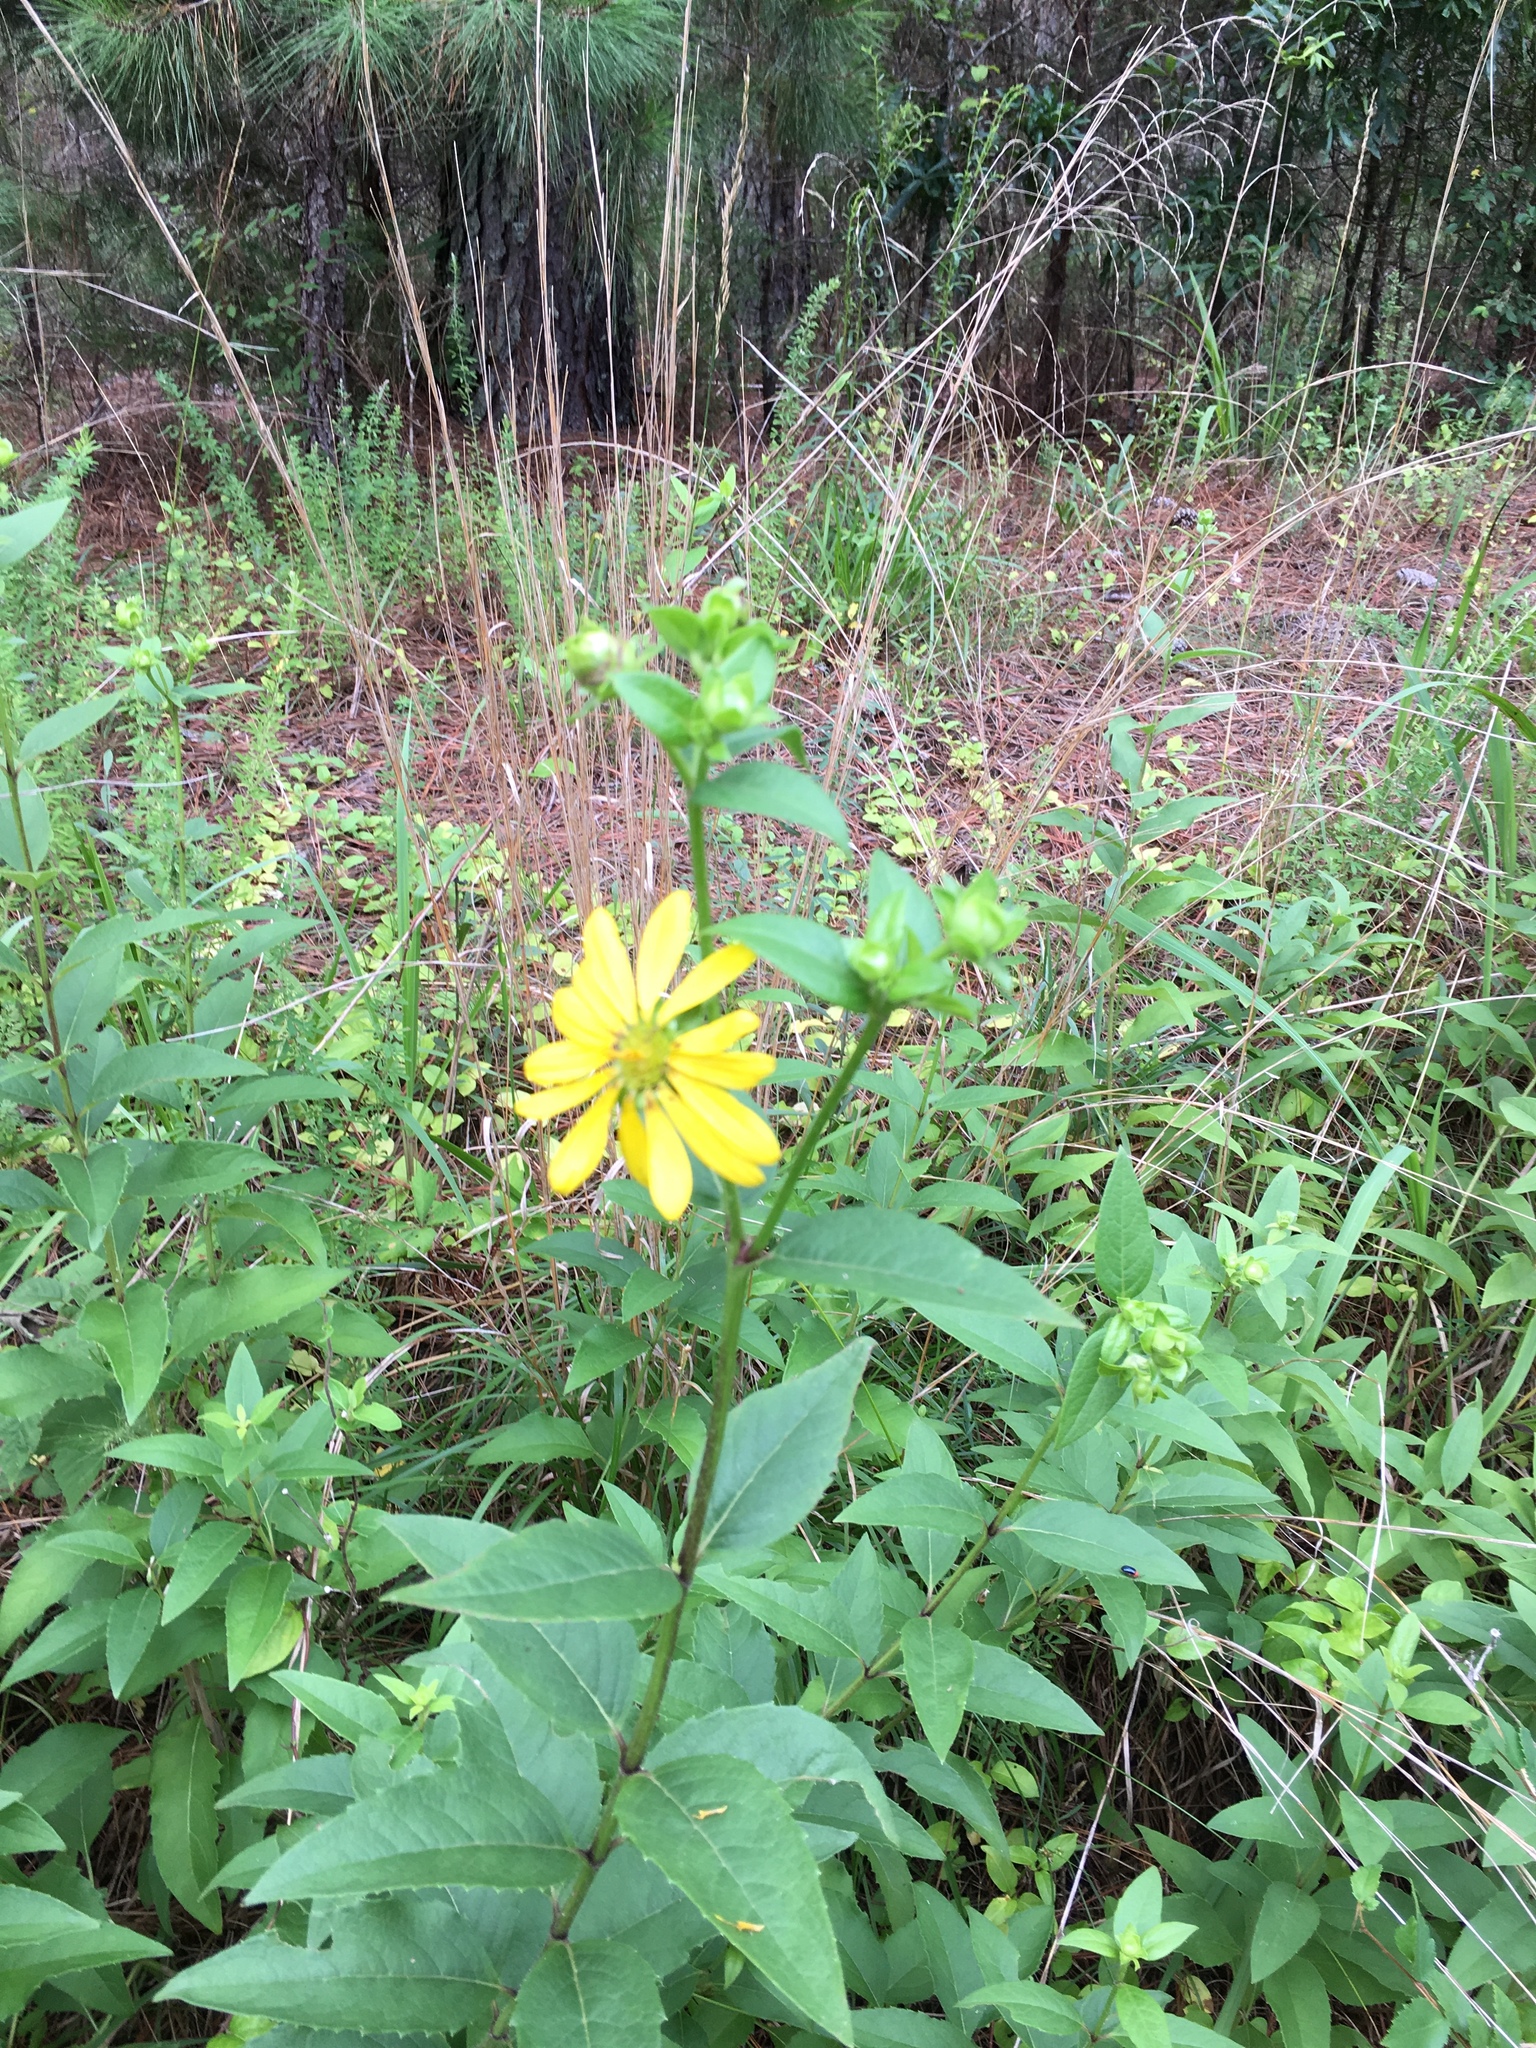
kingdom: Plantae
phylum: Tracheophyta
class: Magnoliopsida
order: Asterales
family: Asteraceae
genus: Silphium
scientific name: Silphium asteriscus
